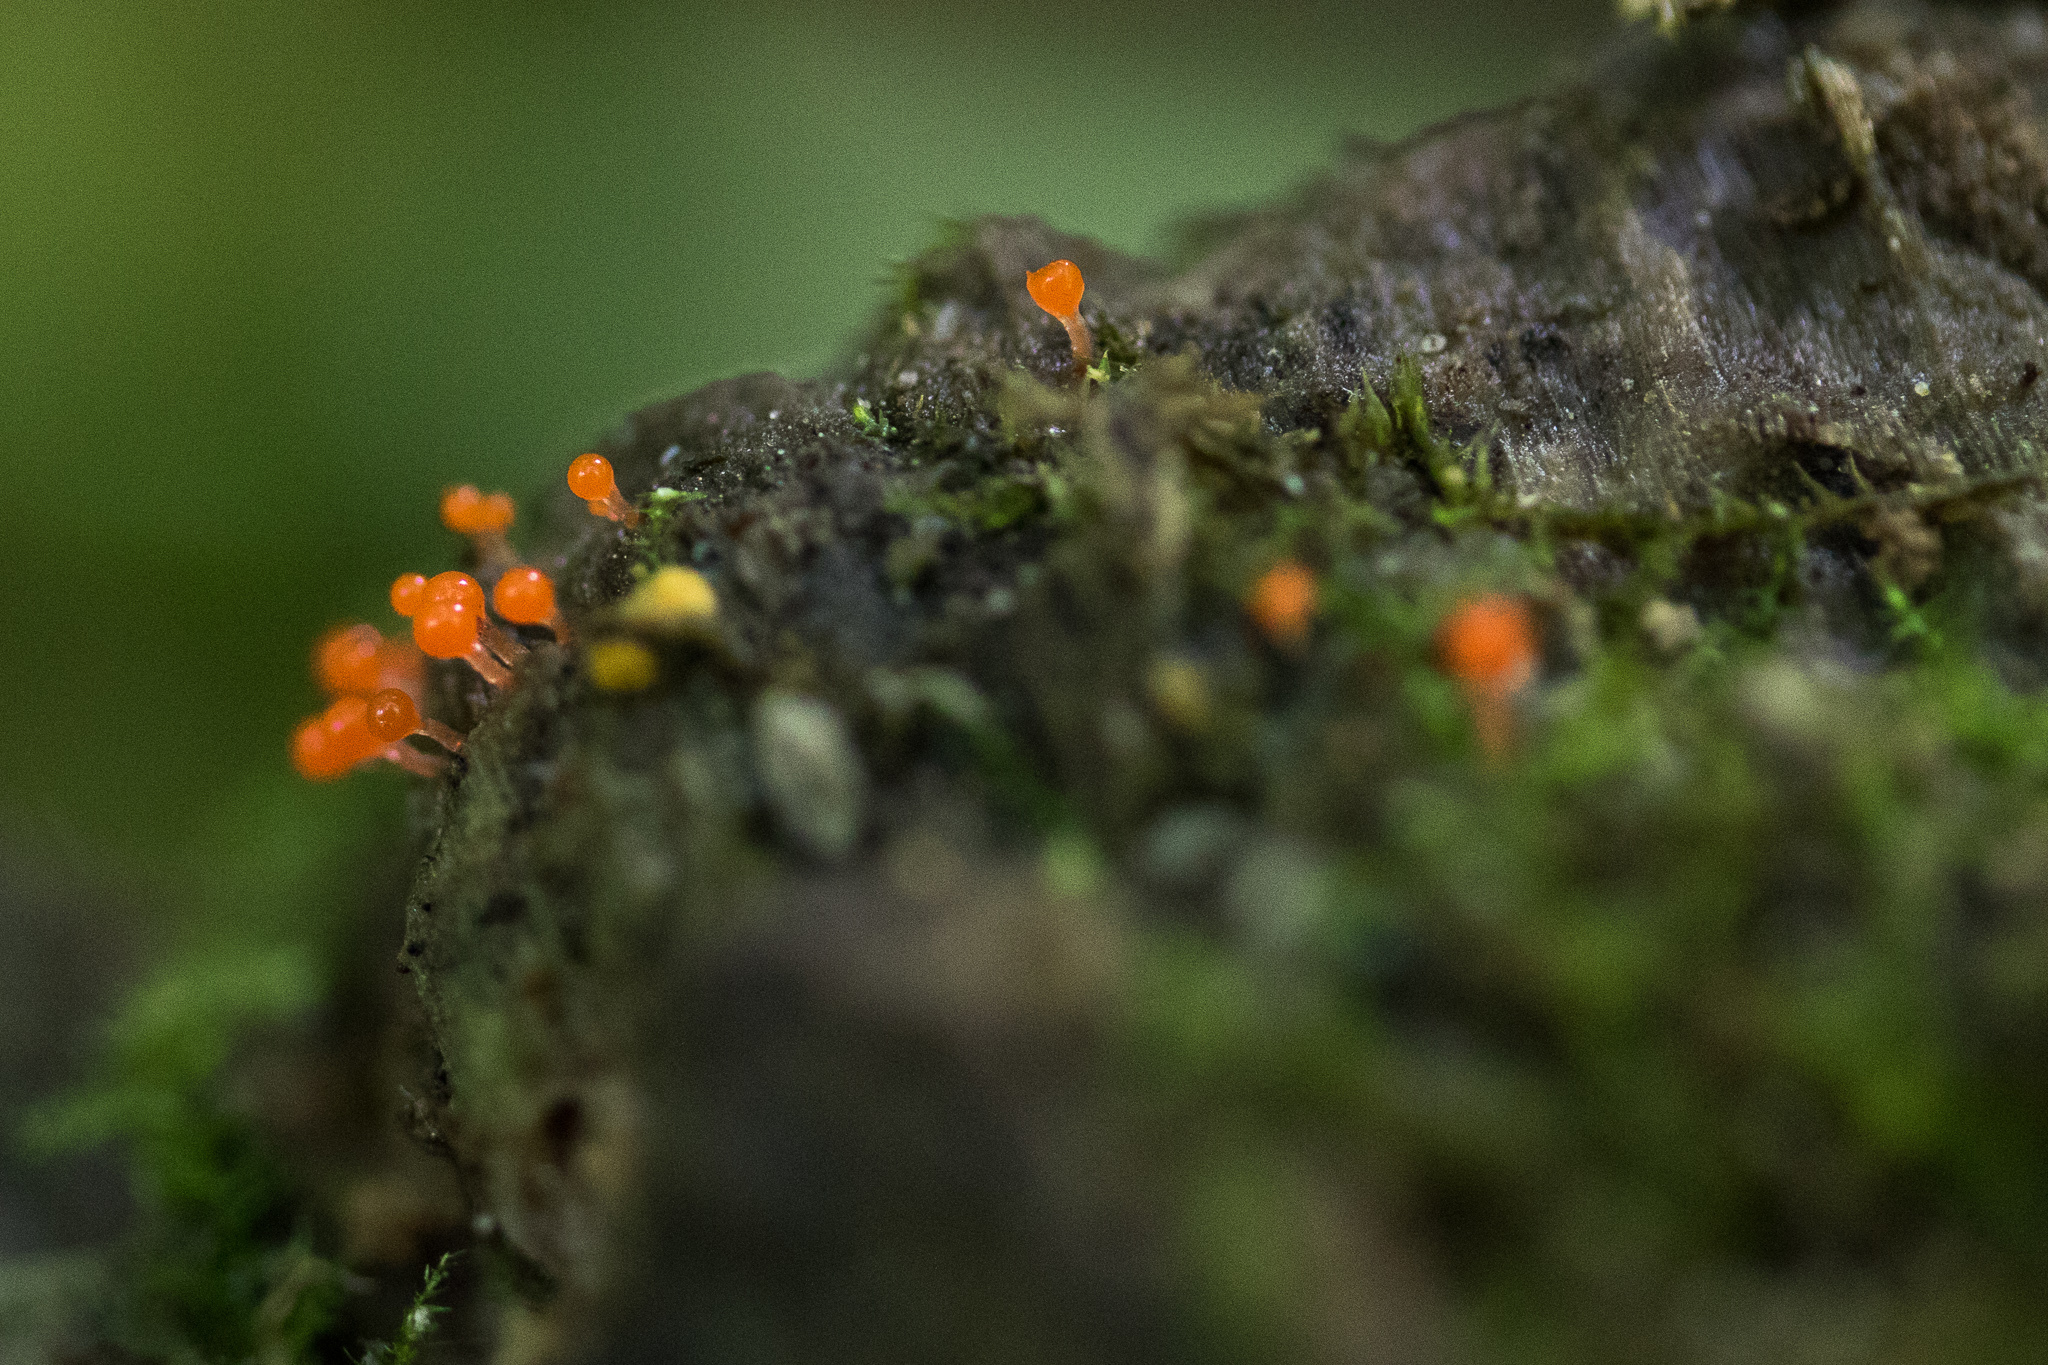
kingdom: Protozoa
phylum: Mycetozoa
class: Myxomycetes
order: Trichiales
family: Arcyriaceae
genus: Hemitrichia
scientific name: Hemitrichia calyculata
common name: Push pin slime mold
